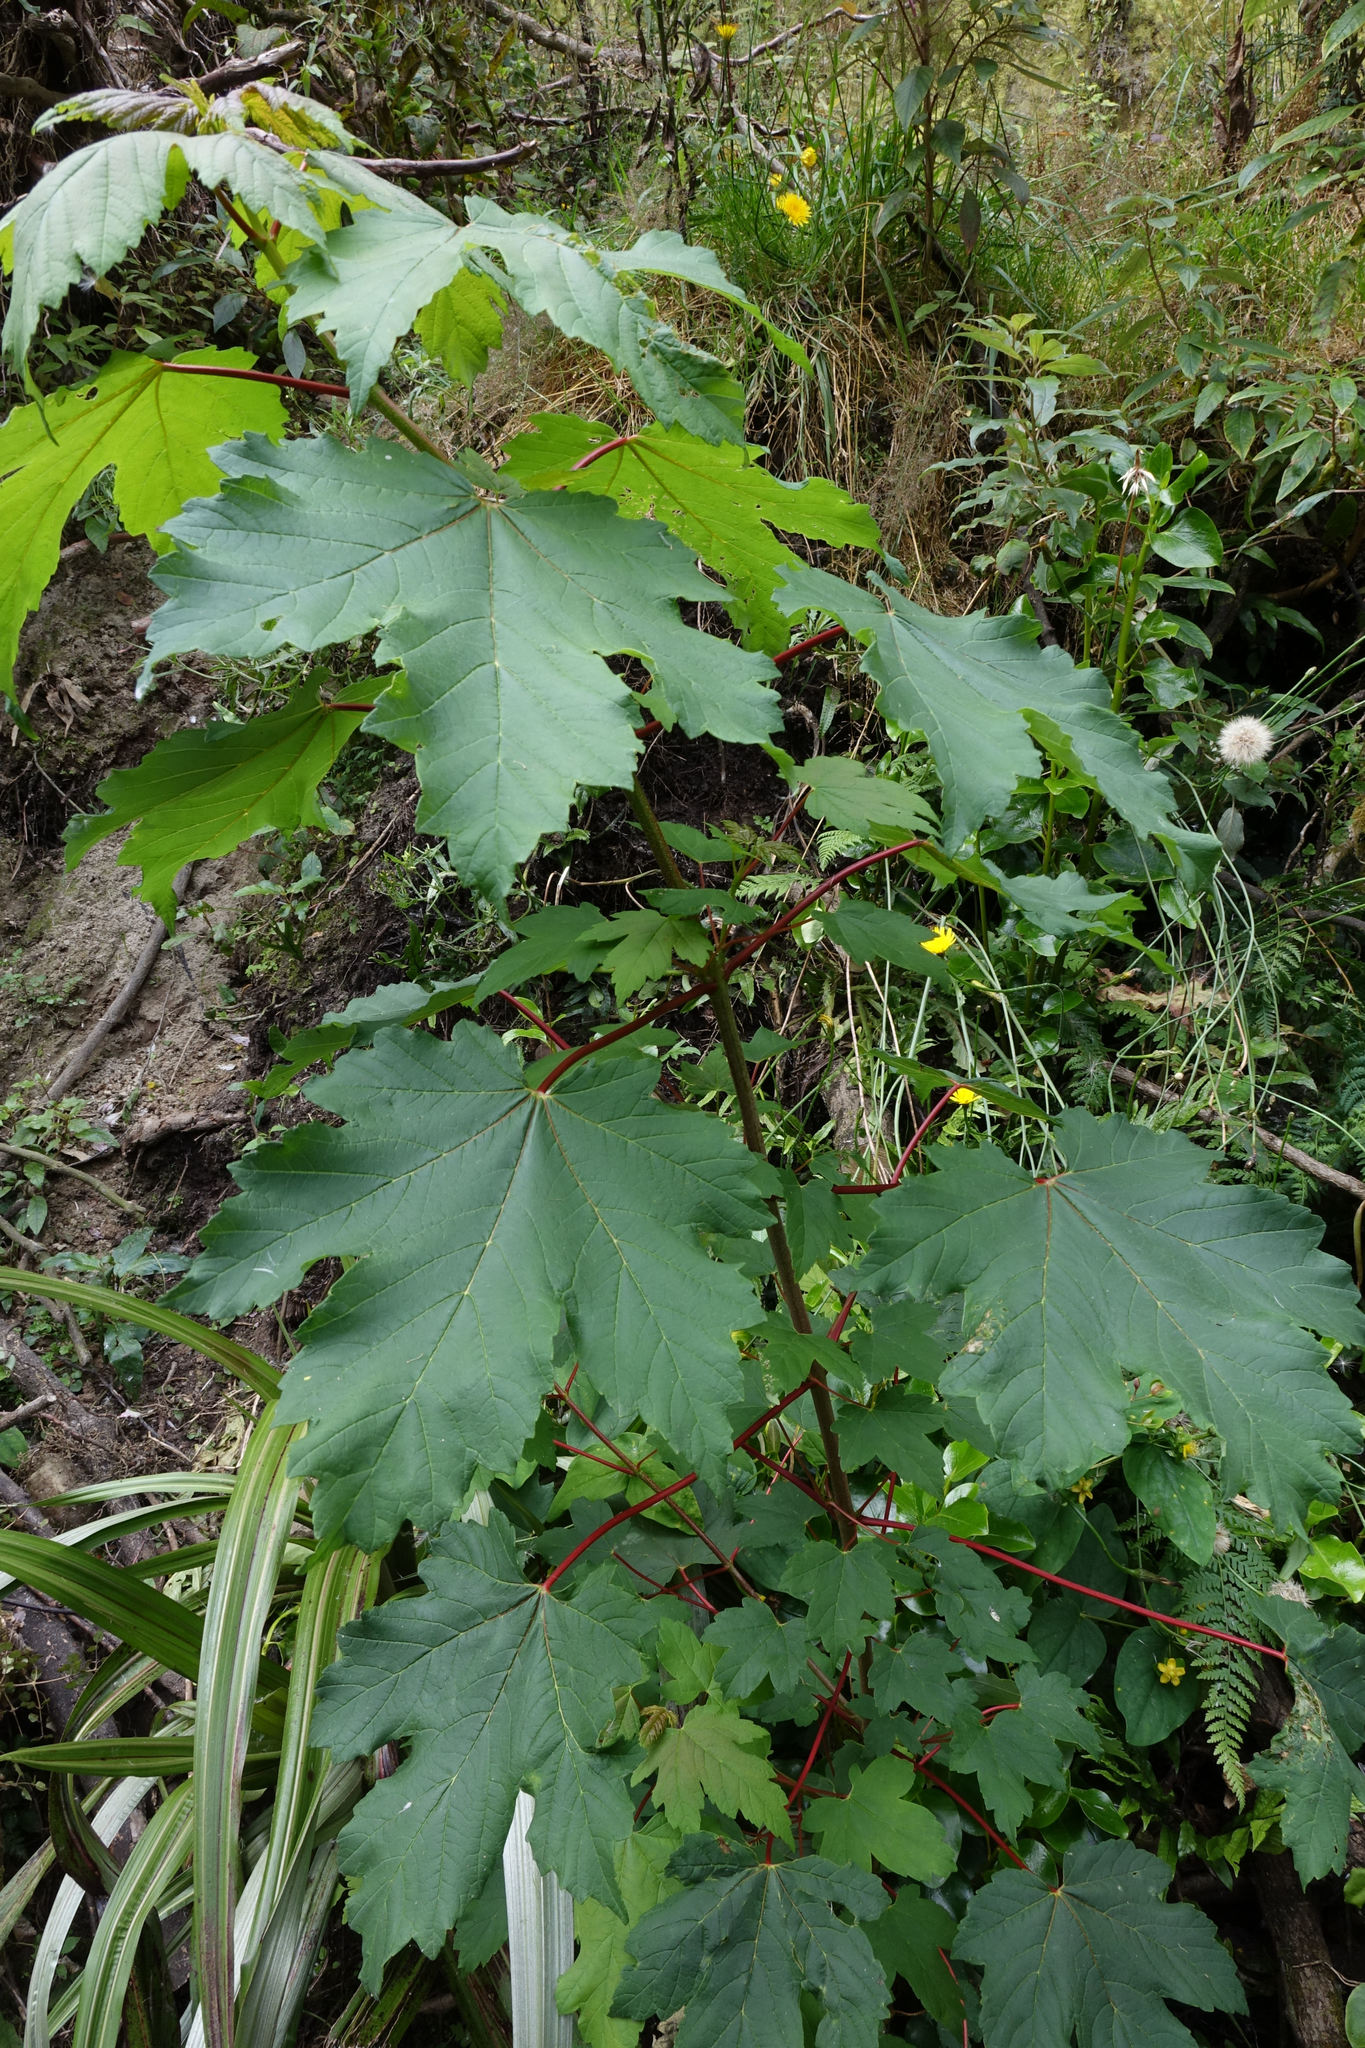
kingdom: Plantae
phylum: Tracheophyta
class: Magnoliopsida
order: Sapindales
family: Sapindaceae
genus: Acer
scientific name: Acer pseudoplatanus
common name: Sycamore
